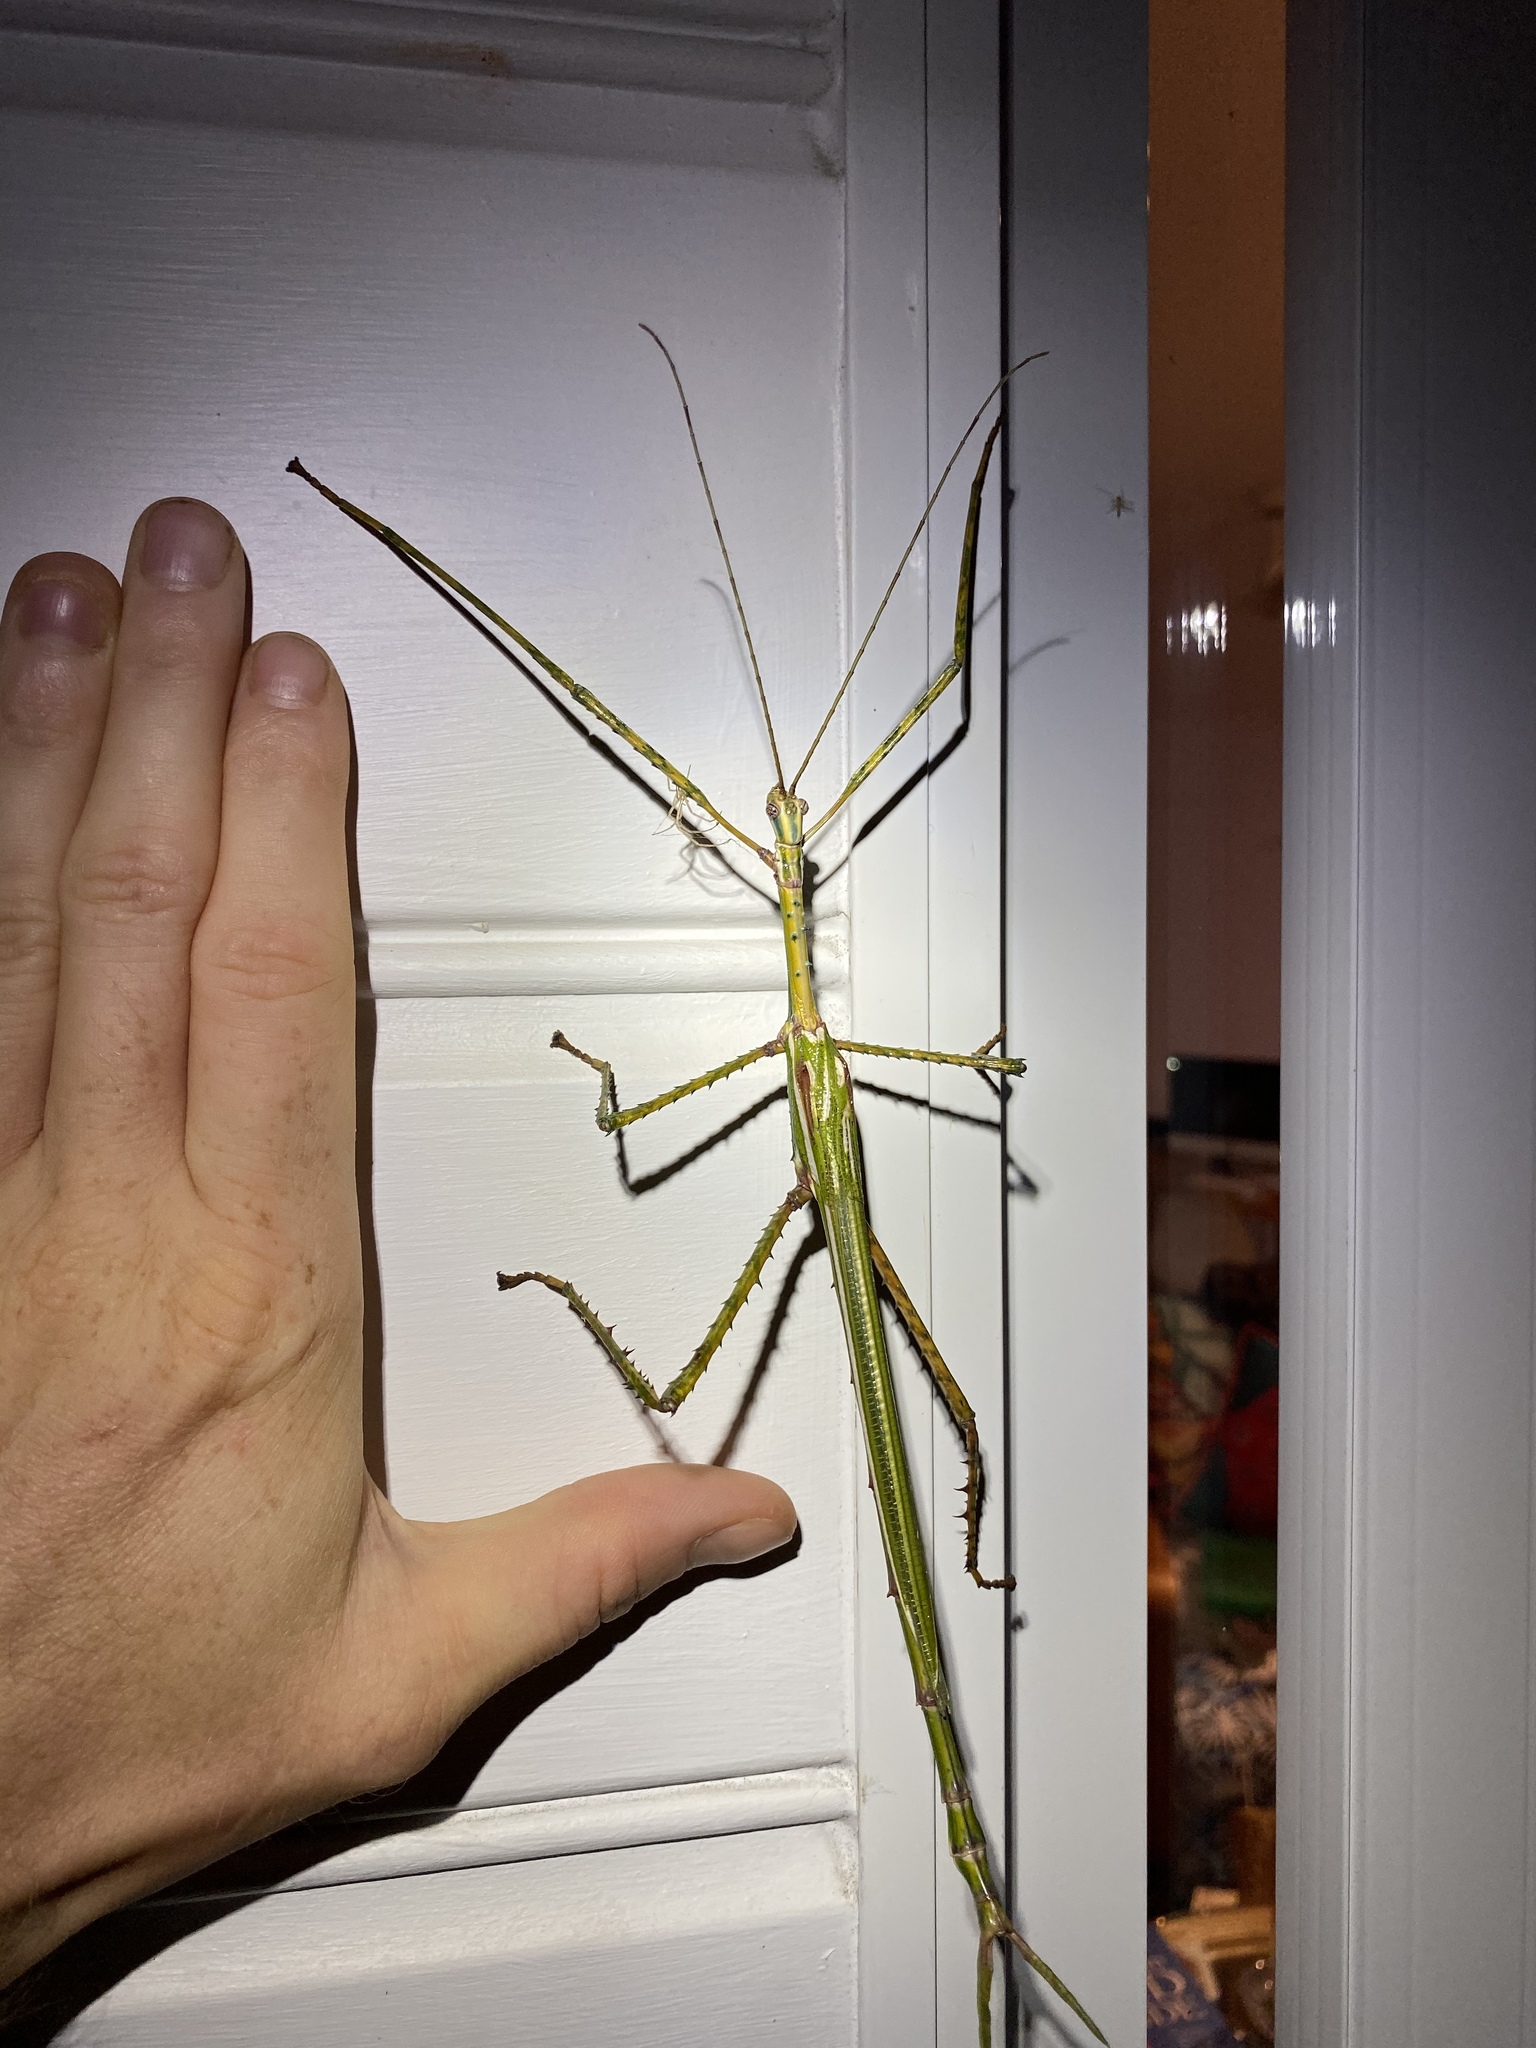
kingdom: Animalia
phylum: Arthropoda
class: Insecta
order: Phasmida
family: Phasmatidae
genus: Eurycnema
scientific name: Eurycnema goliath
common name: Goliath stick insect
